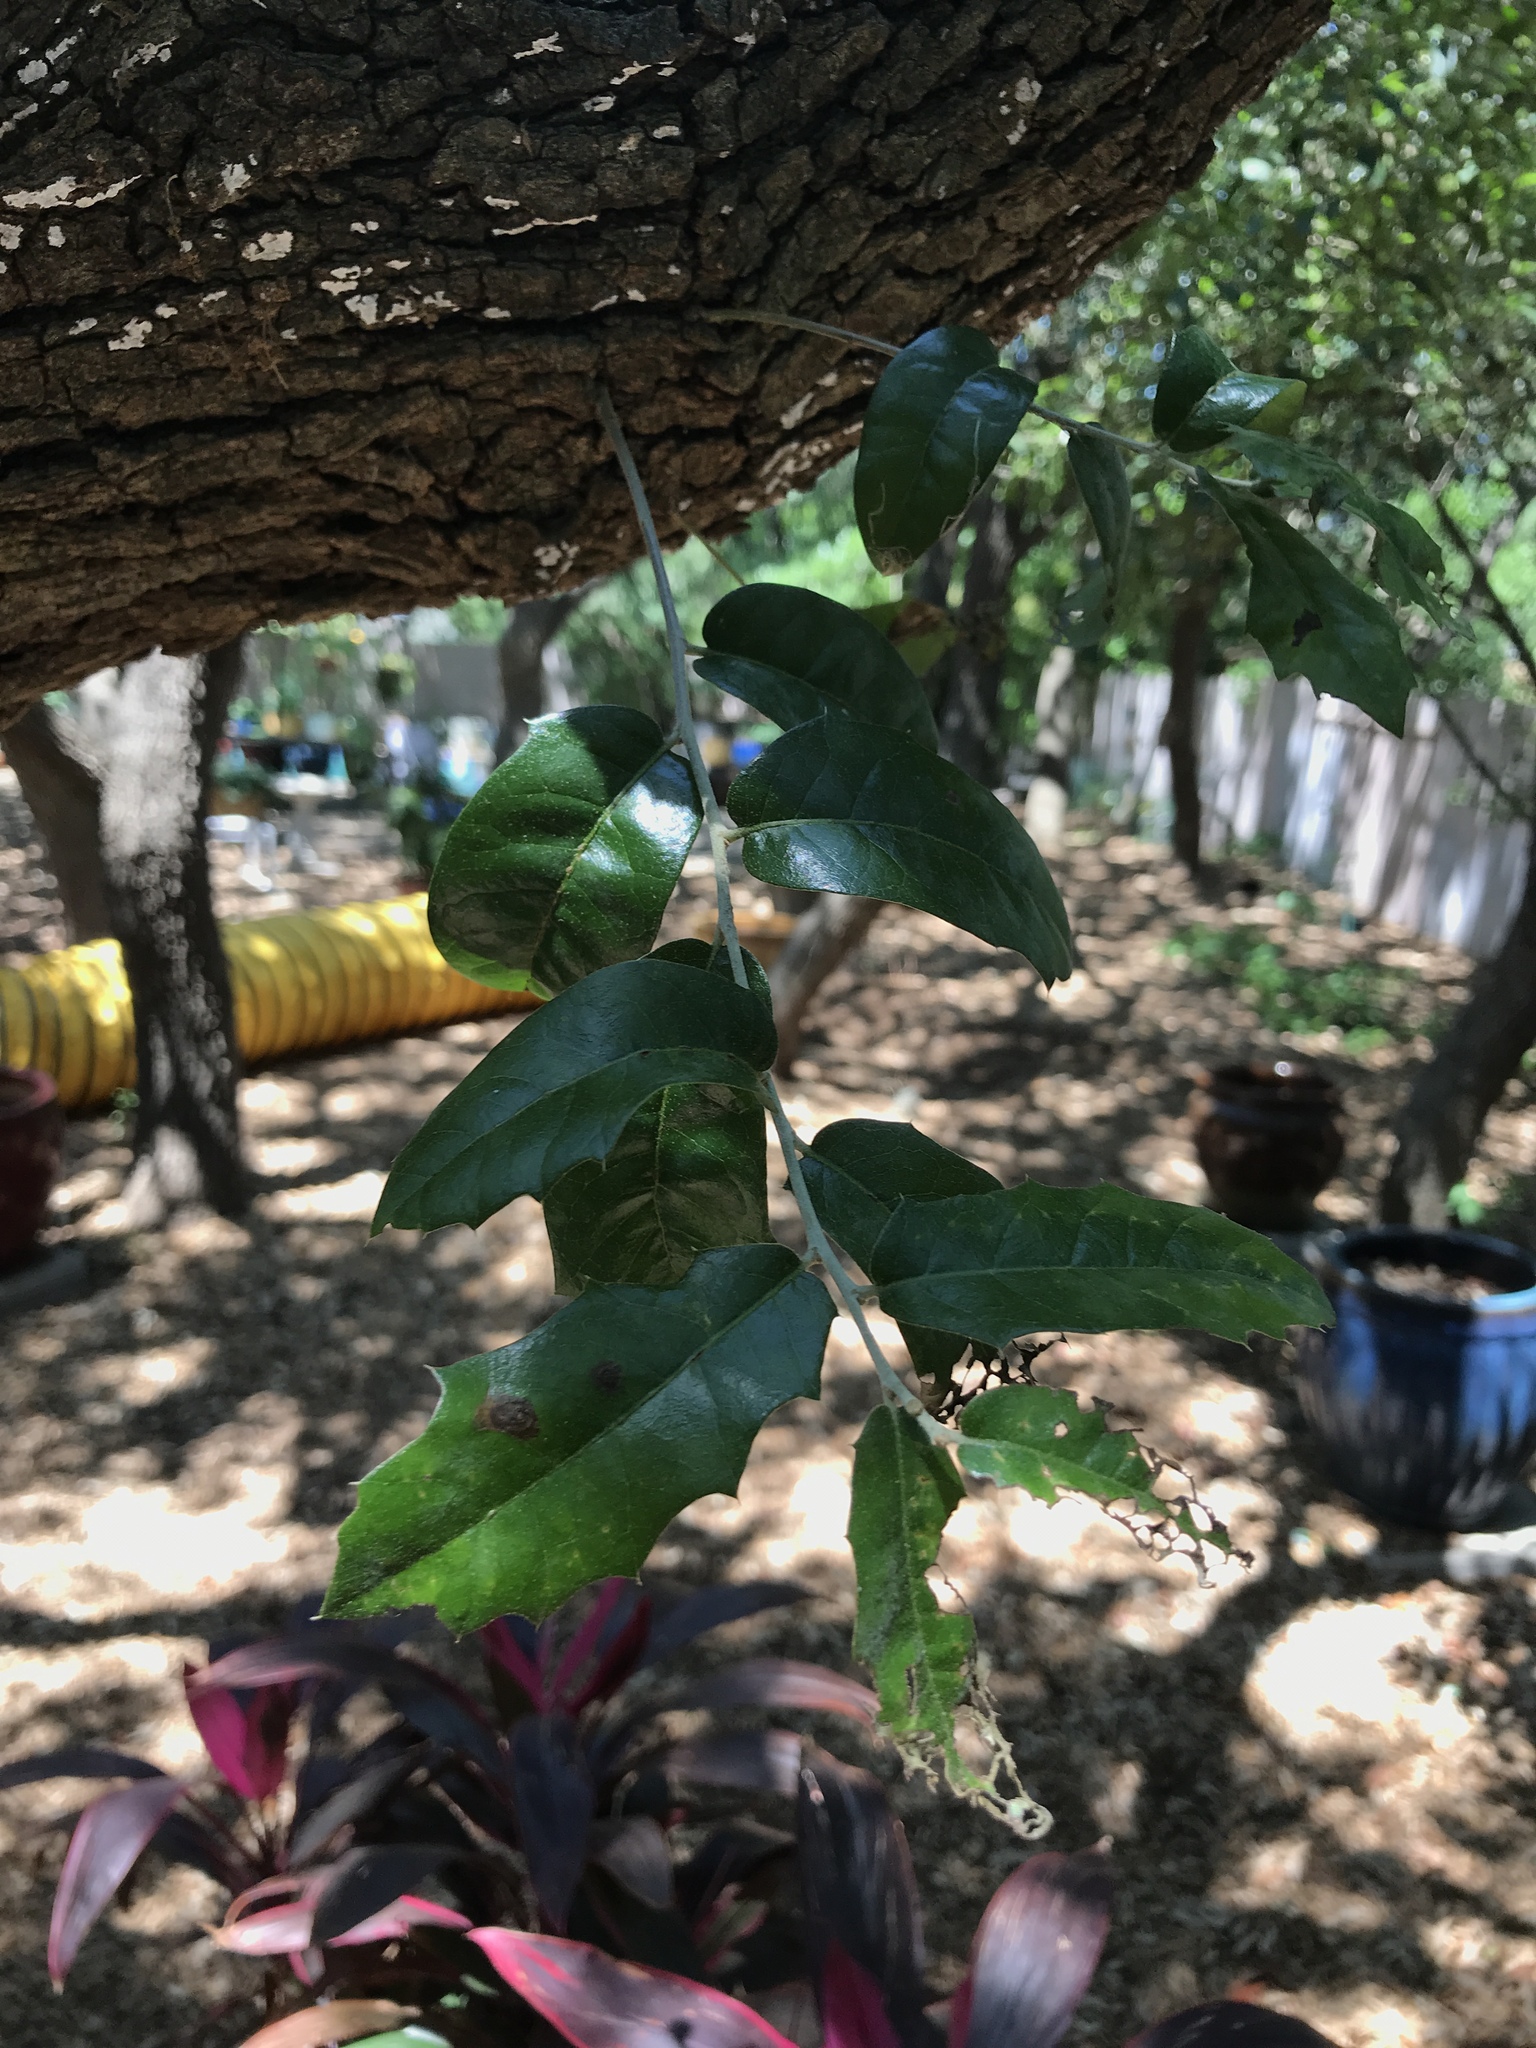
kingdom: Plantae
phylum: Tracheophyta
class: Magnoliopsida
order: Fagales
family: Fagaceae
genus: Quercus
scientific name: Quercus fusiformis
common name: Texas live oak
